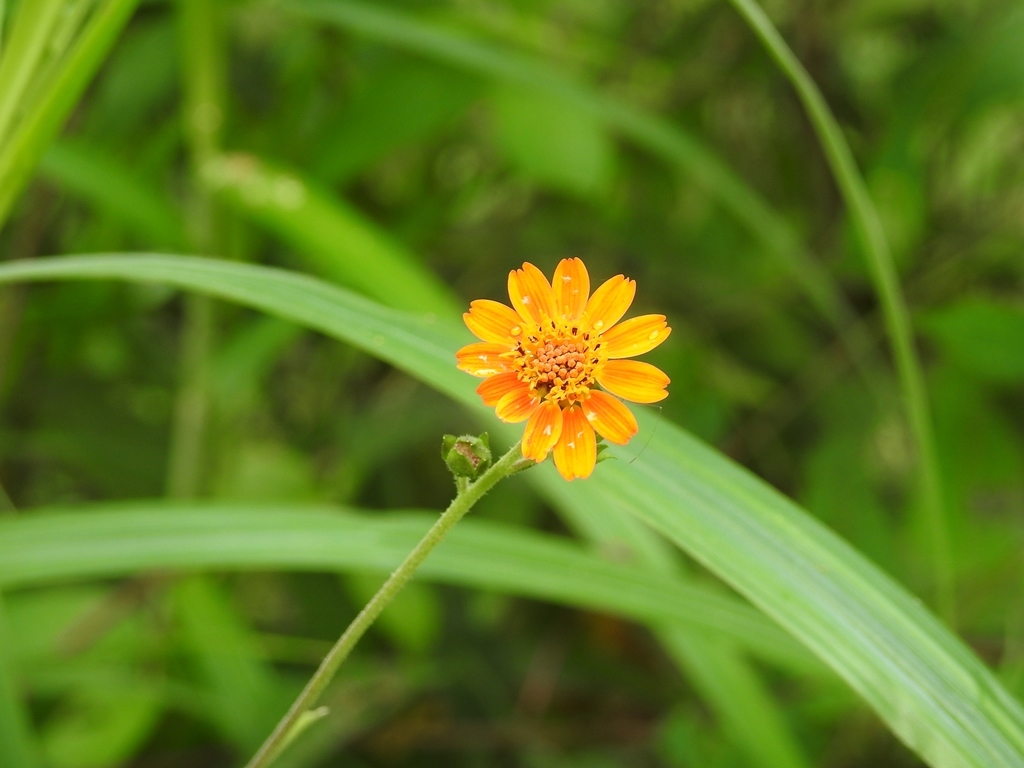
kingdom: Plantae
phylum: Tracheophyta
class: Magnoliopsida
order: Asterales
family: Asteraceae
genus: Smallanthus
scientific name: Smallanthus oaxacanus
